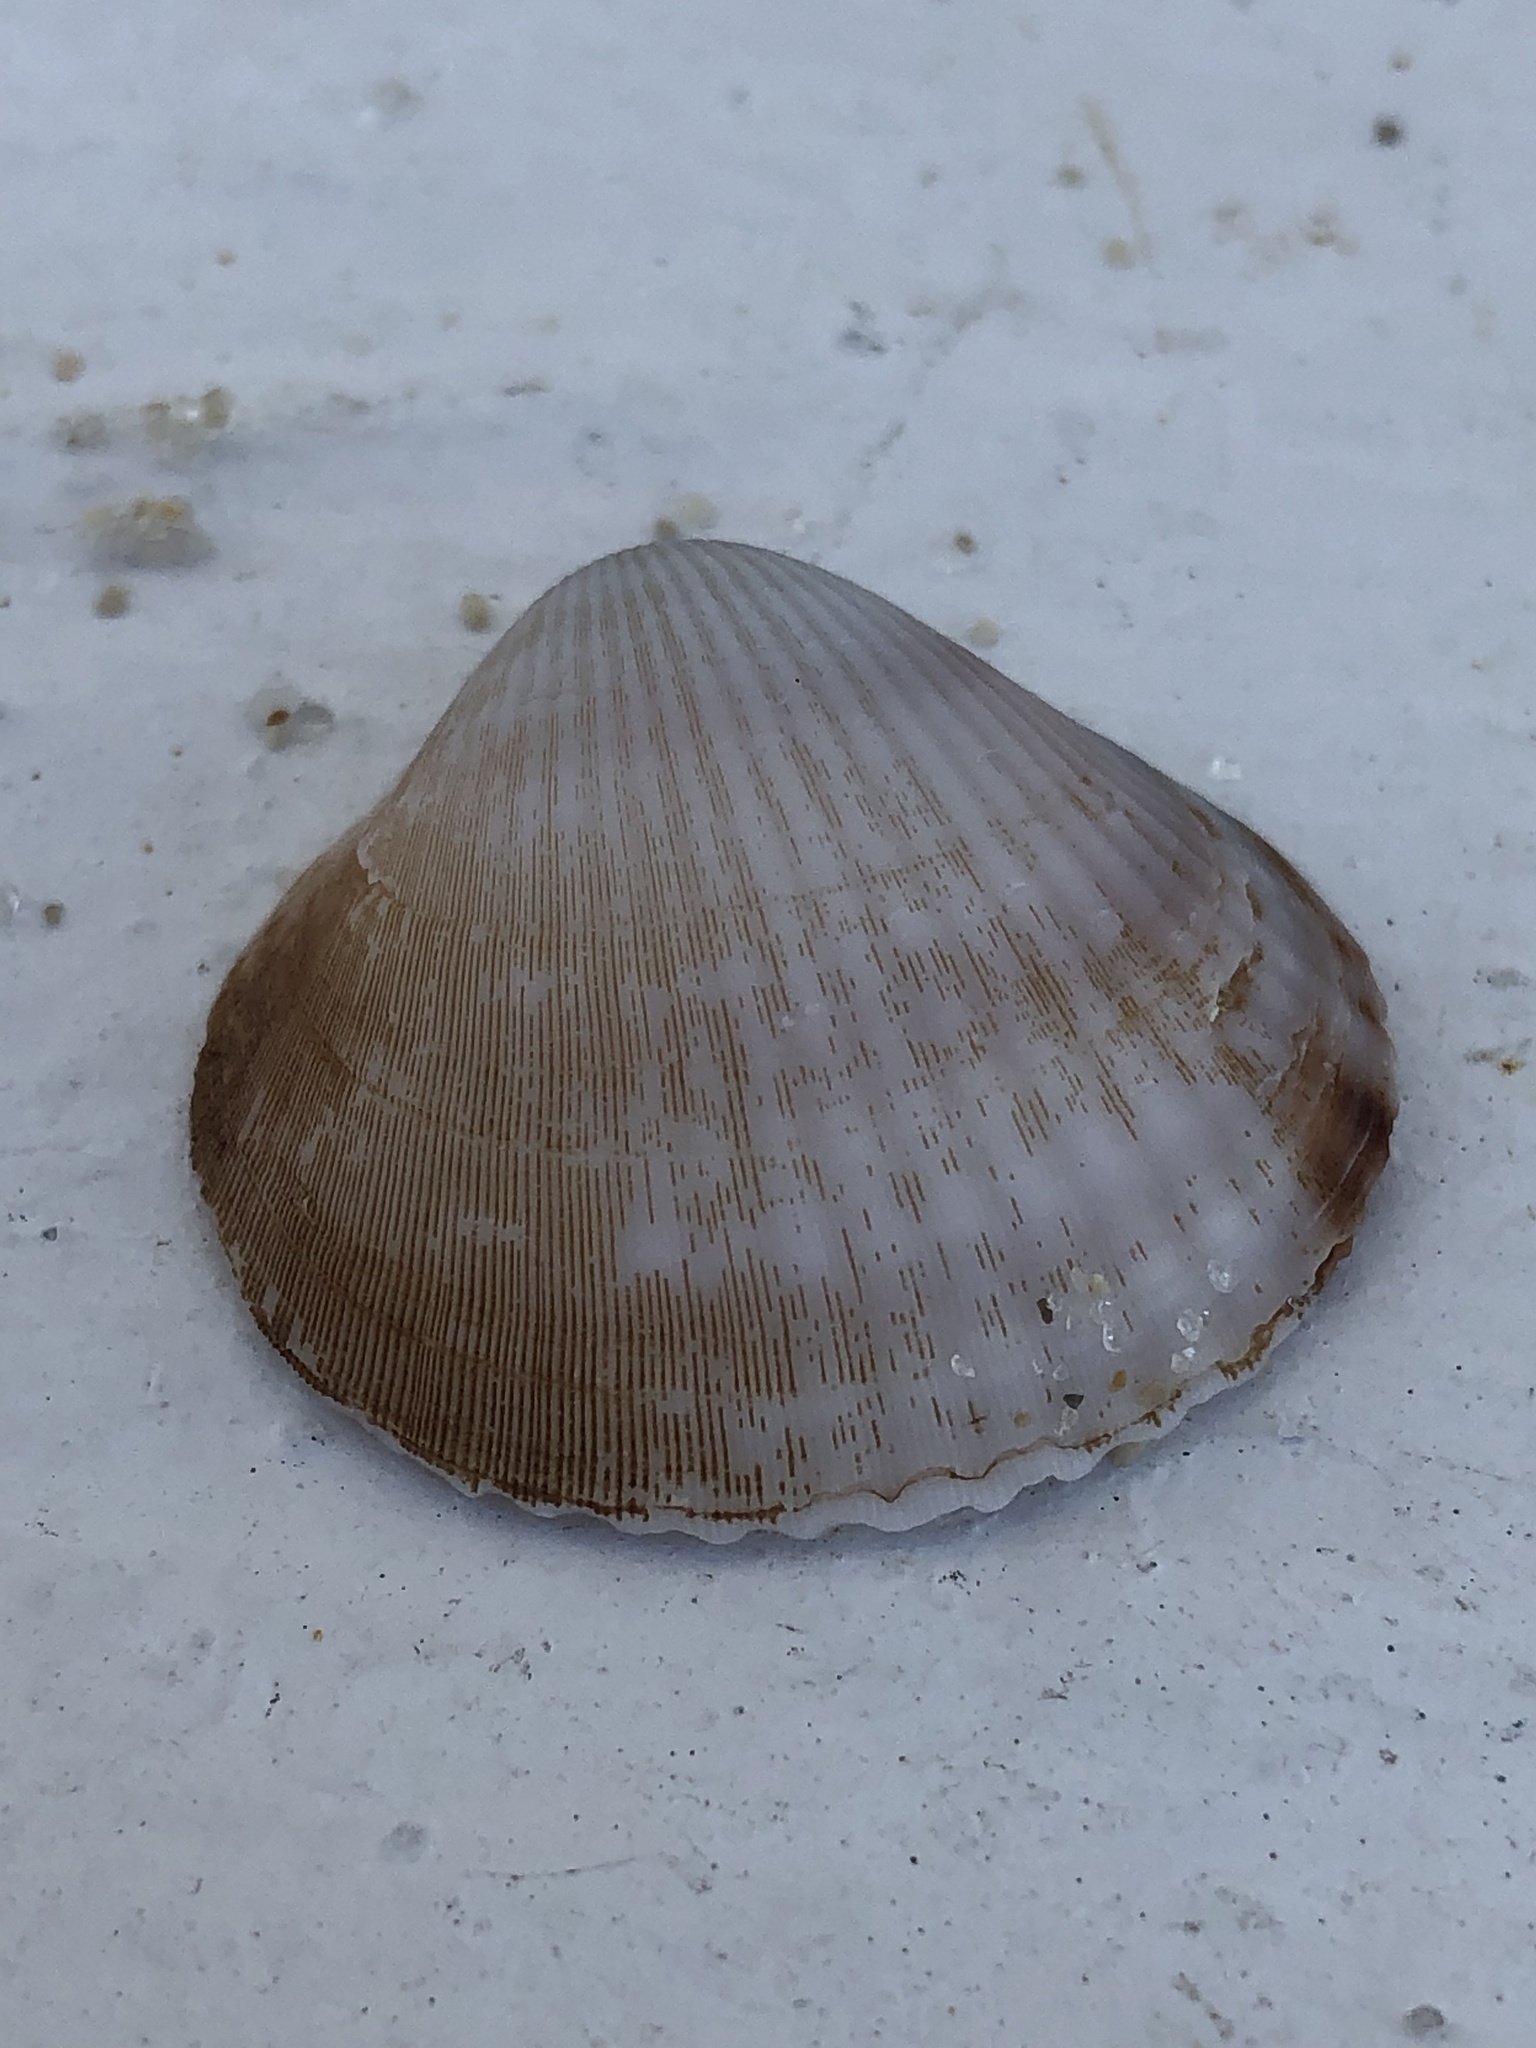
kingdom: Animalia
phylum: Mollusca
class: Bivalvia
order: Arcida
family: Glycymerididae
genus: Glycymeris
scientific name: Glycymeris spectralis
